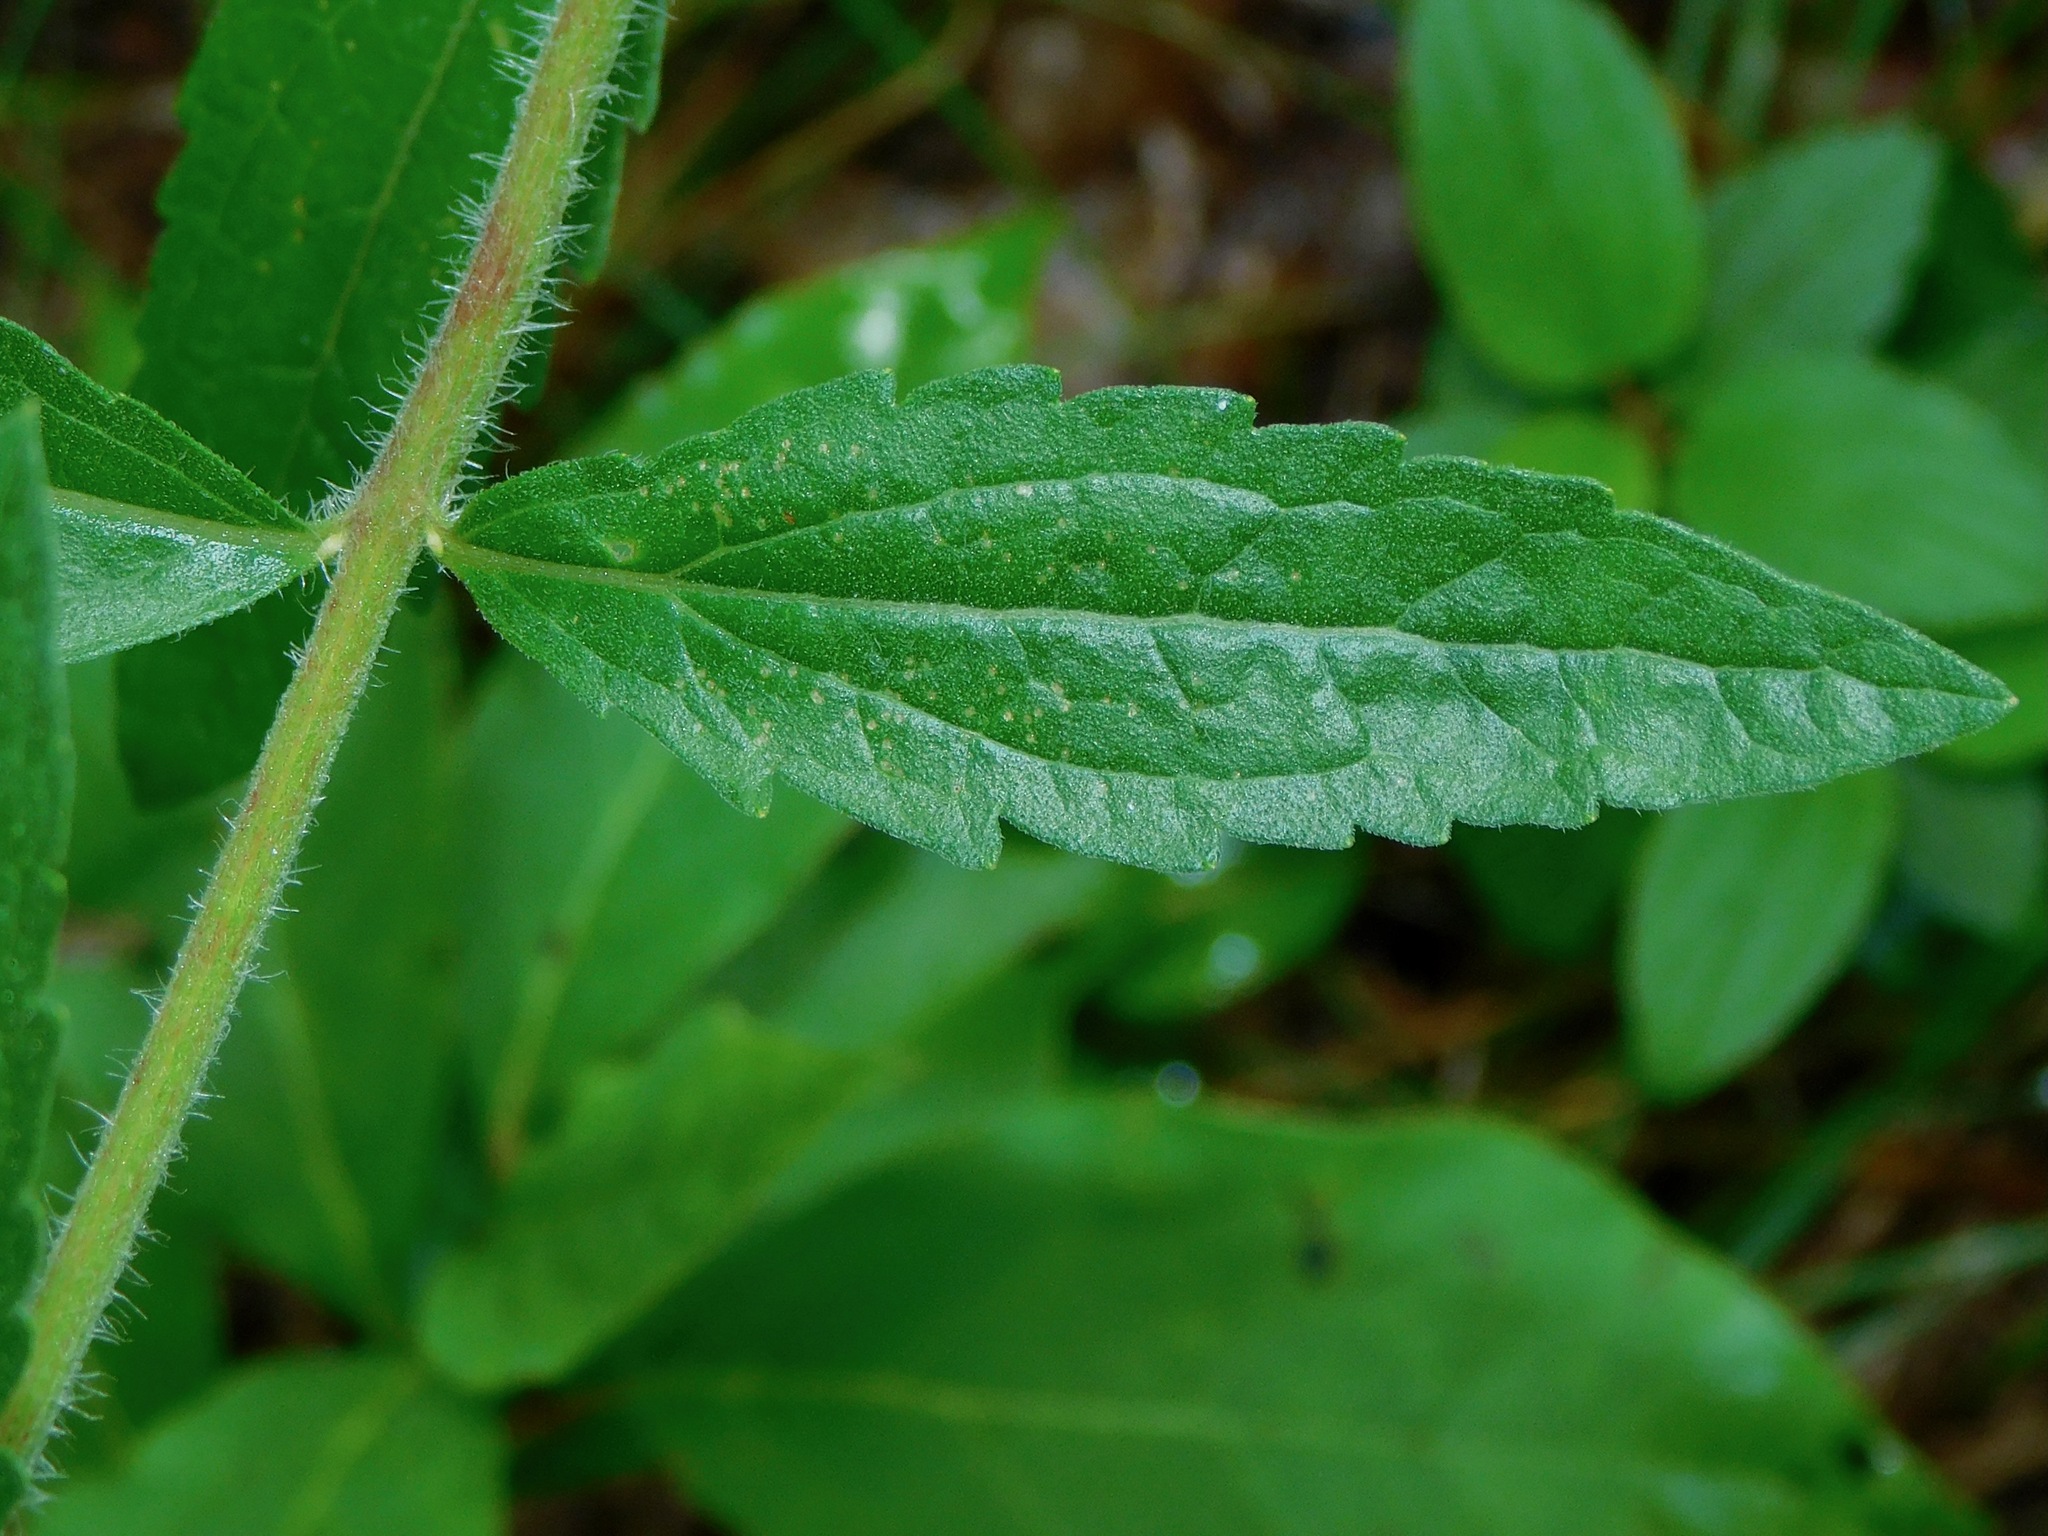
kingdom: Plantae
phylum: Tracheophyta
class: Magnoliopsida
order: Asterales
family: Asteraceae
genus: Eupatorium
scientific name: Eupatorium album
